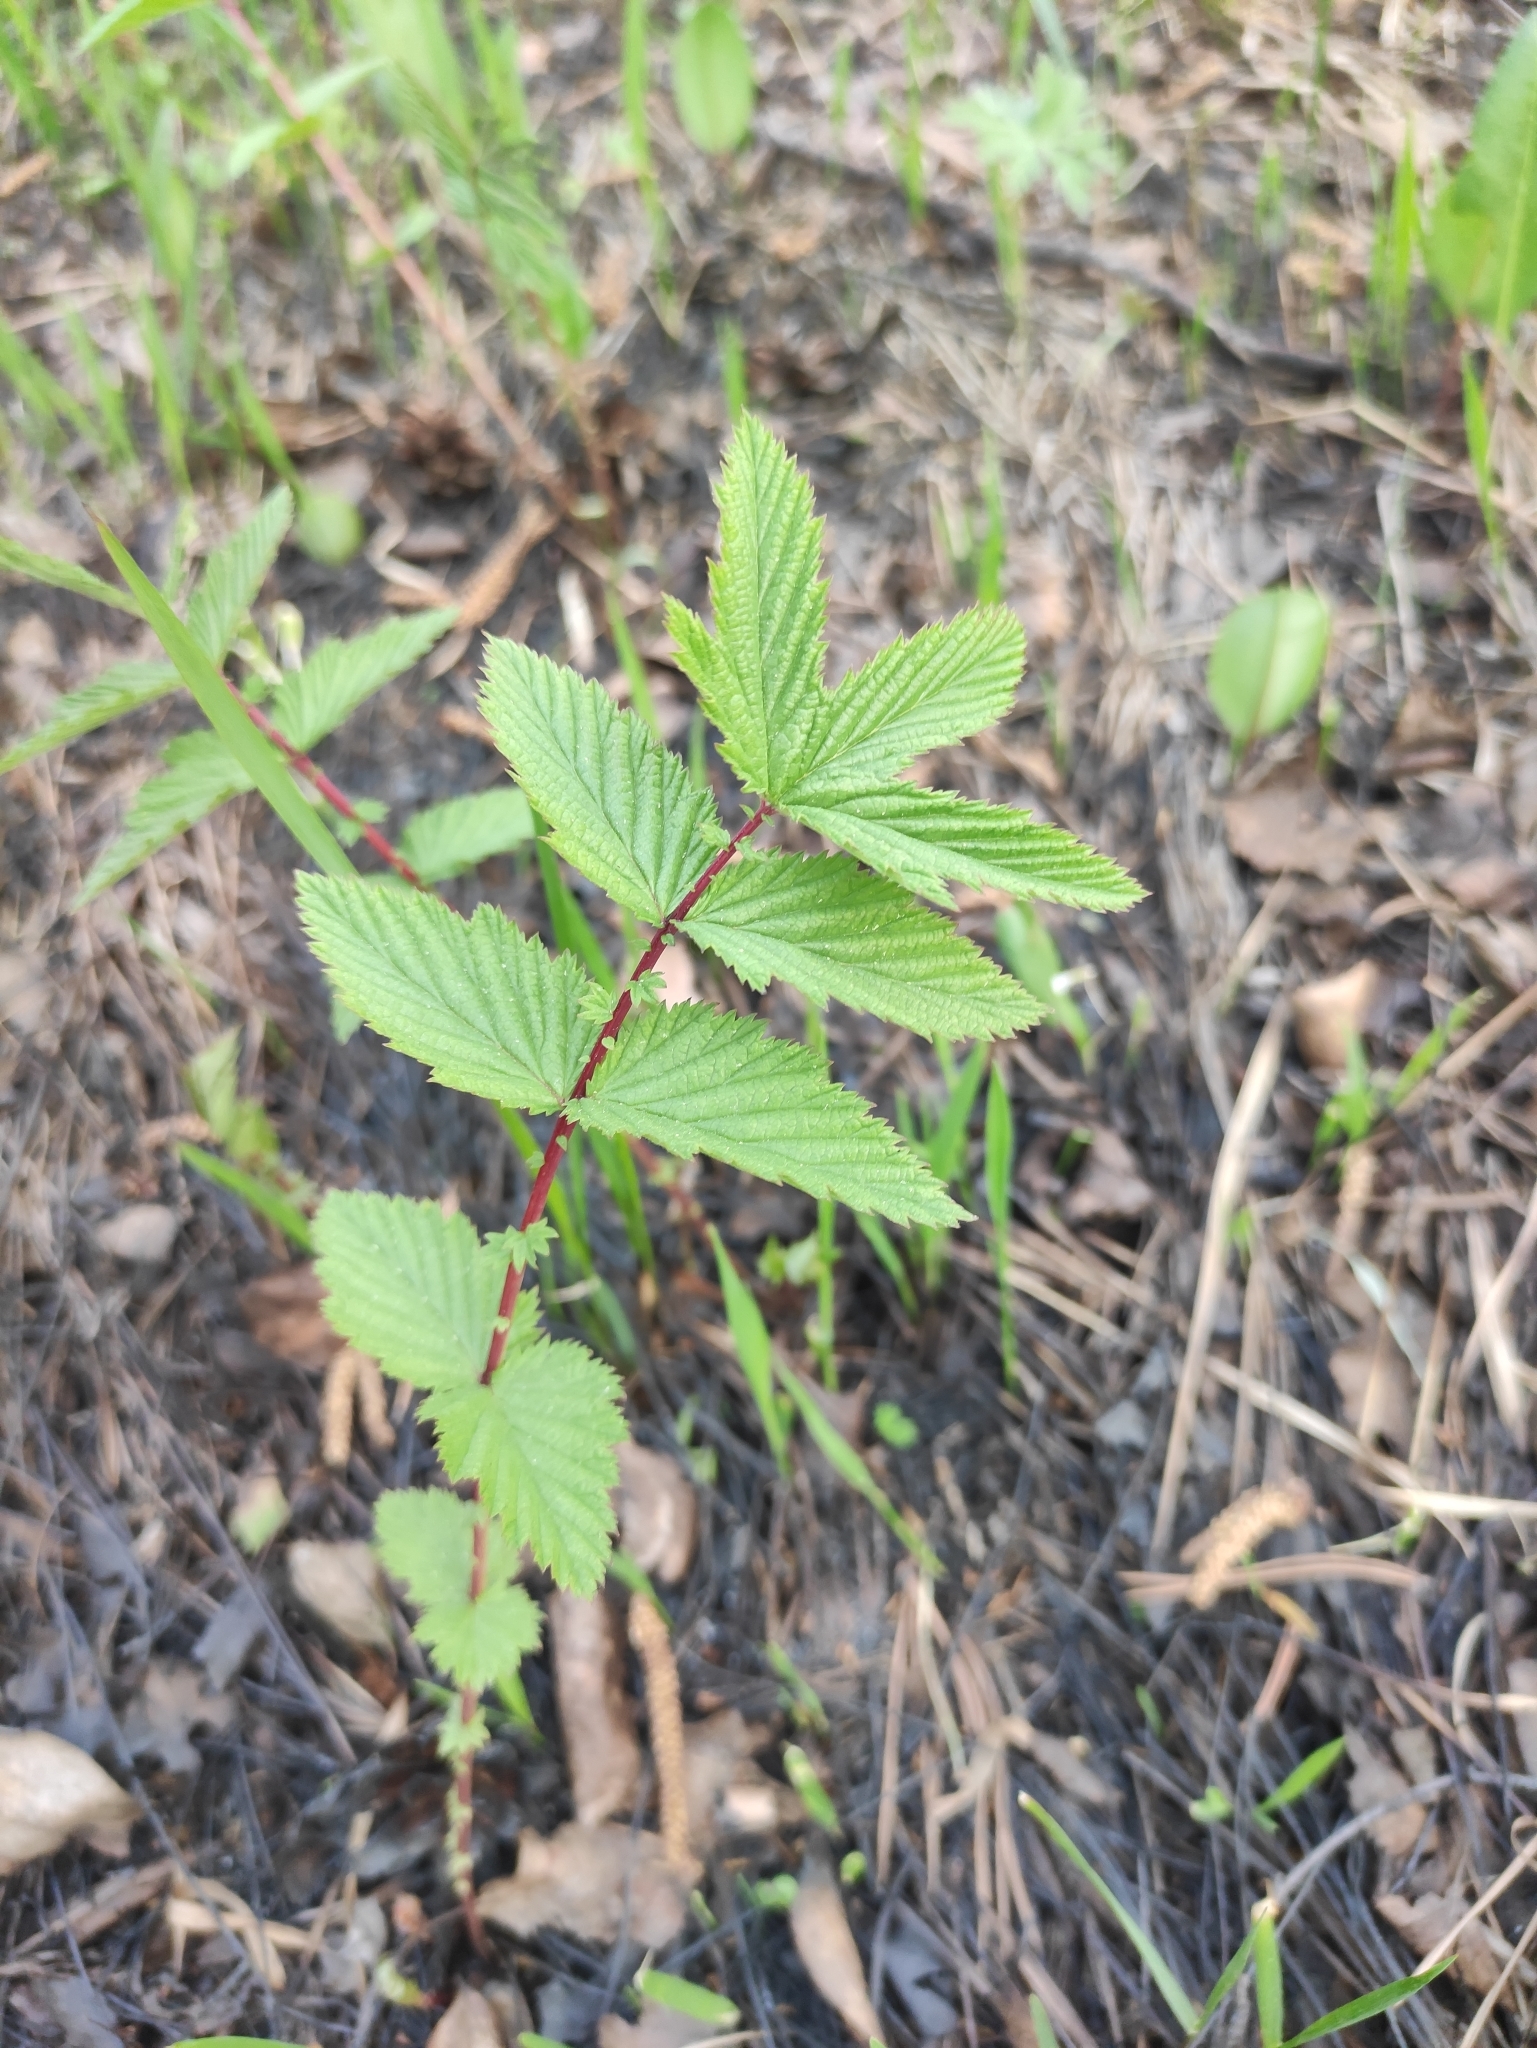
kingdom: Plantae
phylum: Tracheophyta
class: Magnoliopsida
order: Rosales
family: Rosaceae
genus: Filipendula
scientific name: Filipendula ulmaria
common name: Meadowsweet
